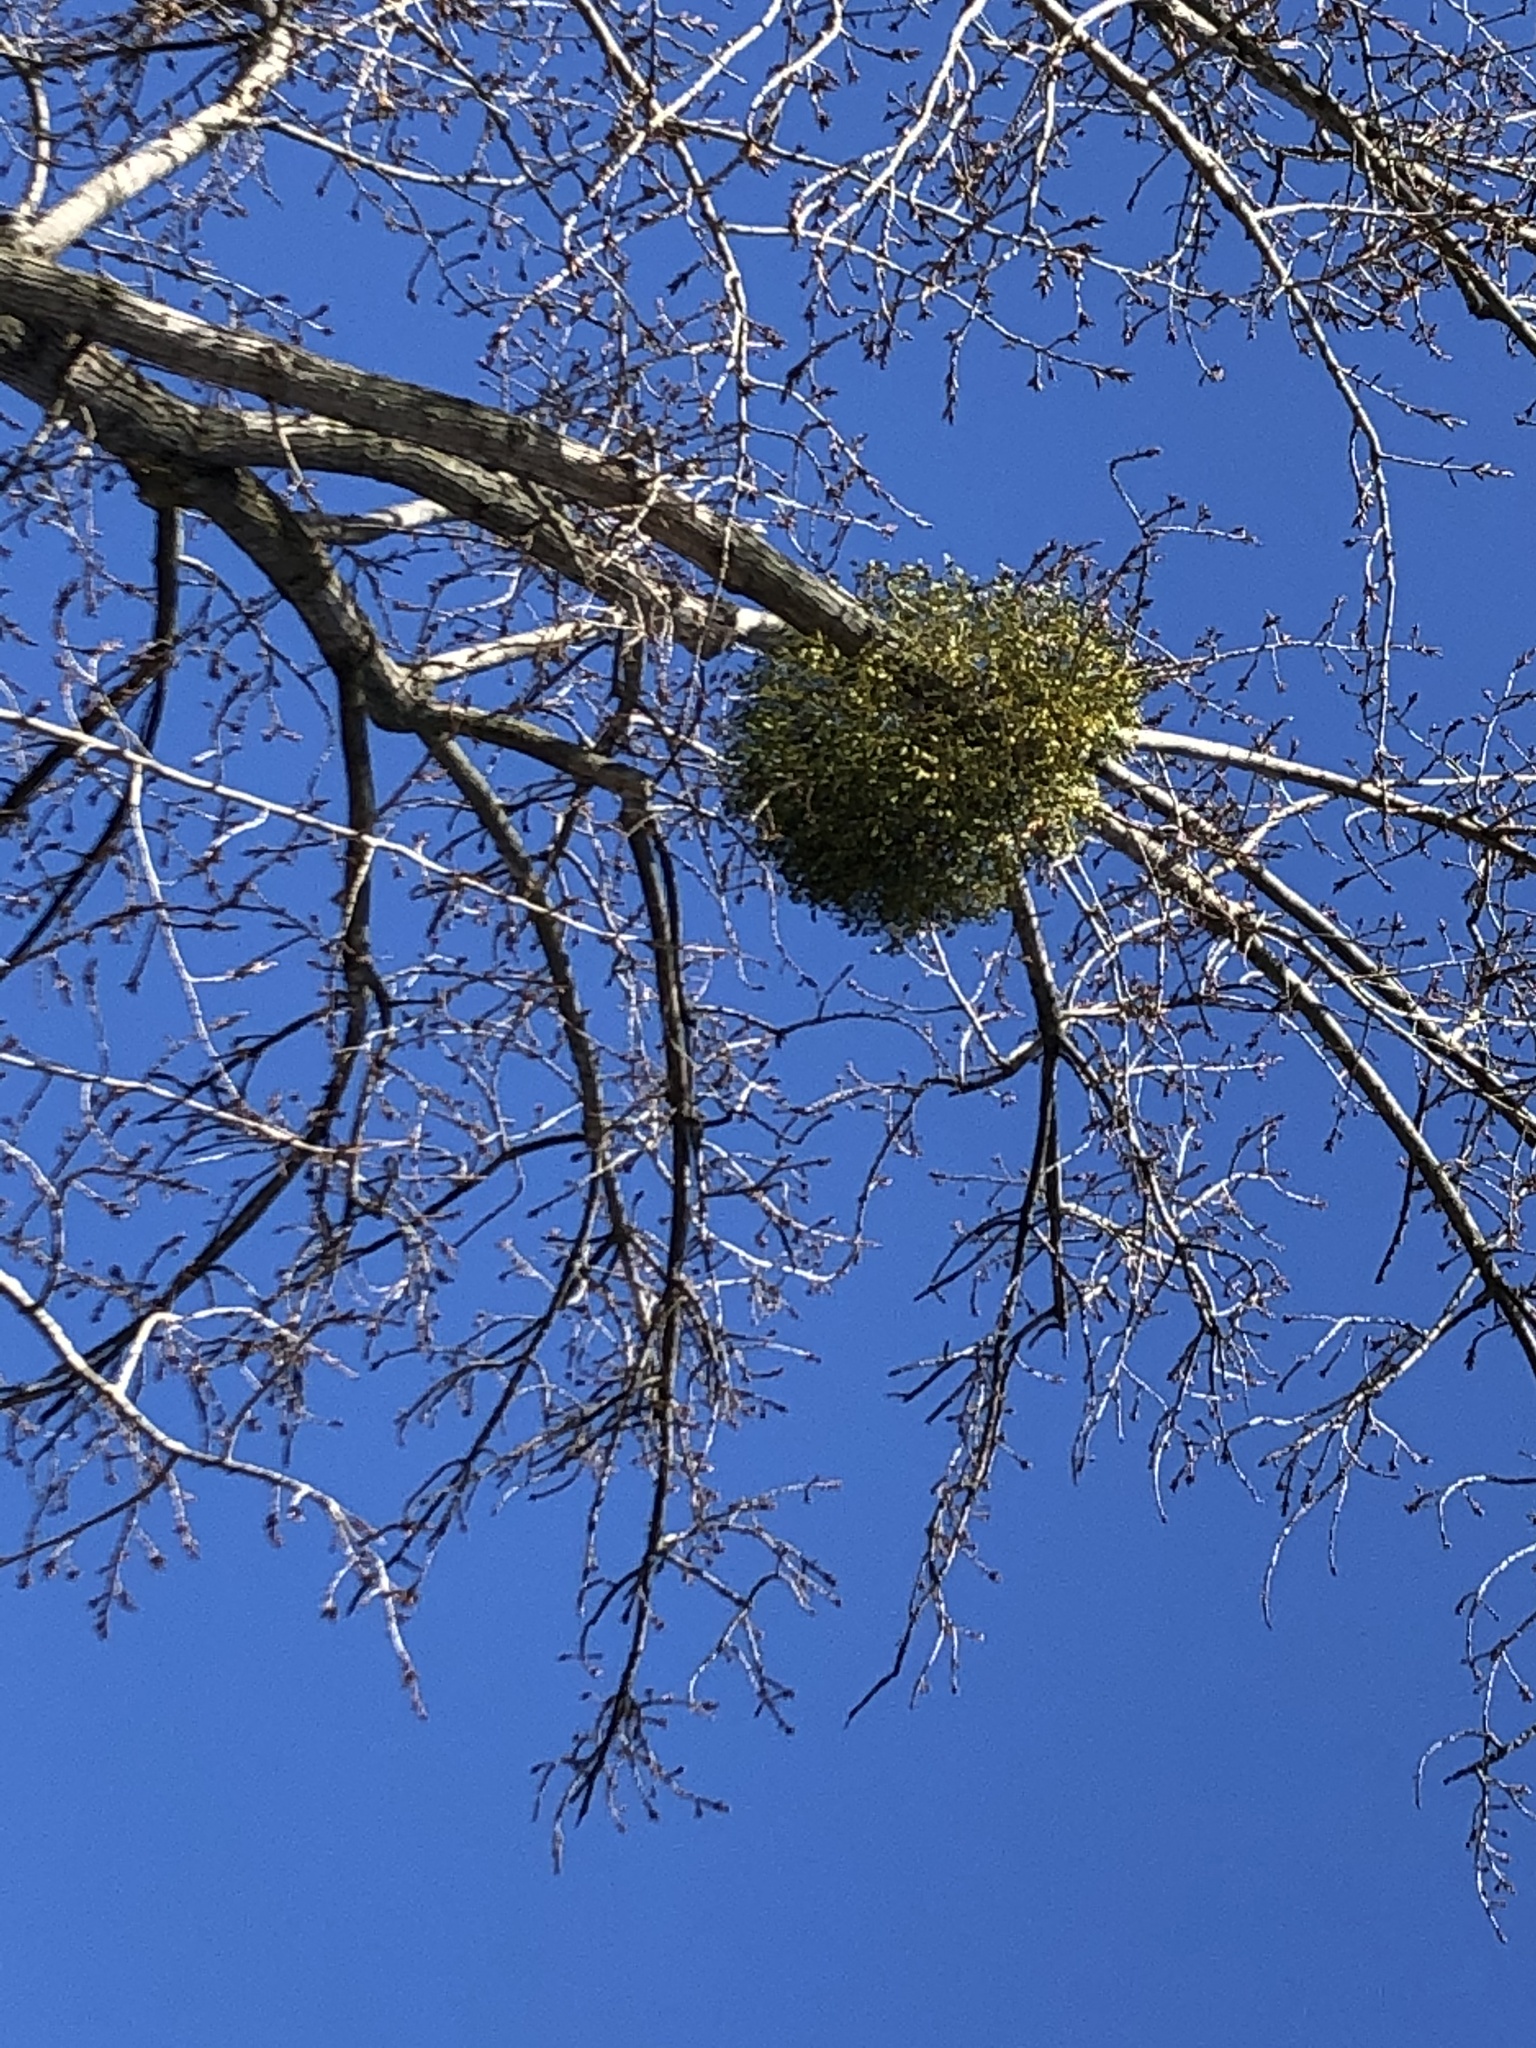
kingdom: Plantae
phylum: Tracheophyta
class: Magnoliopsida
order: Santalales
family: Viscaceae
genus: Viscum
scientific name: Viscum album
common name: Mistletoe
